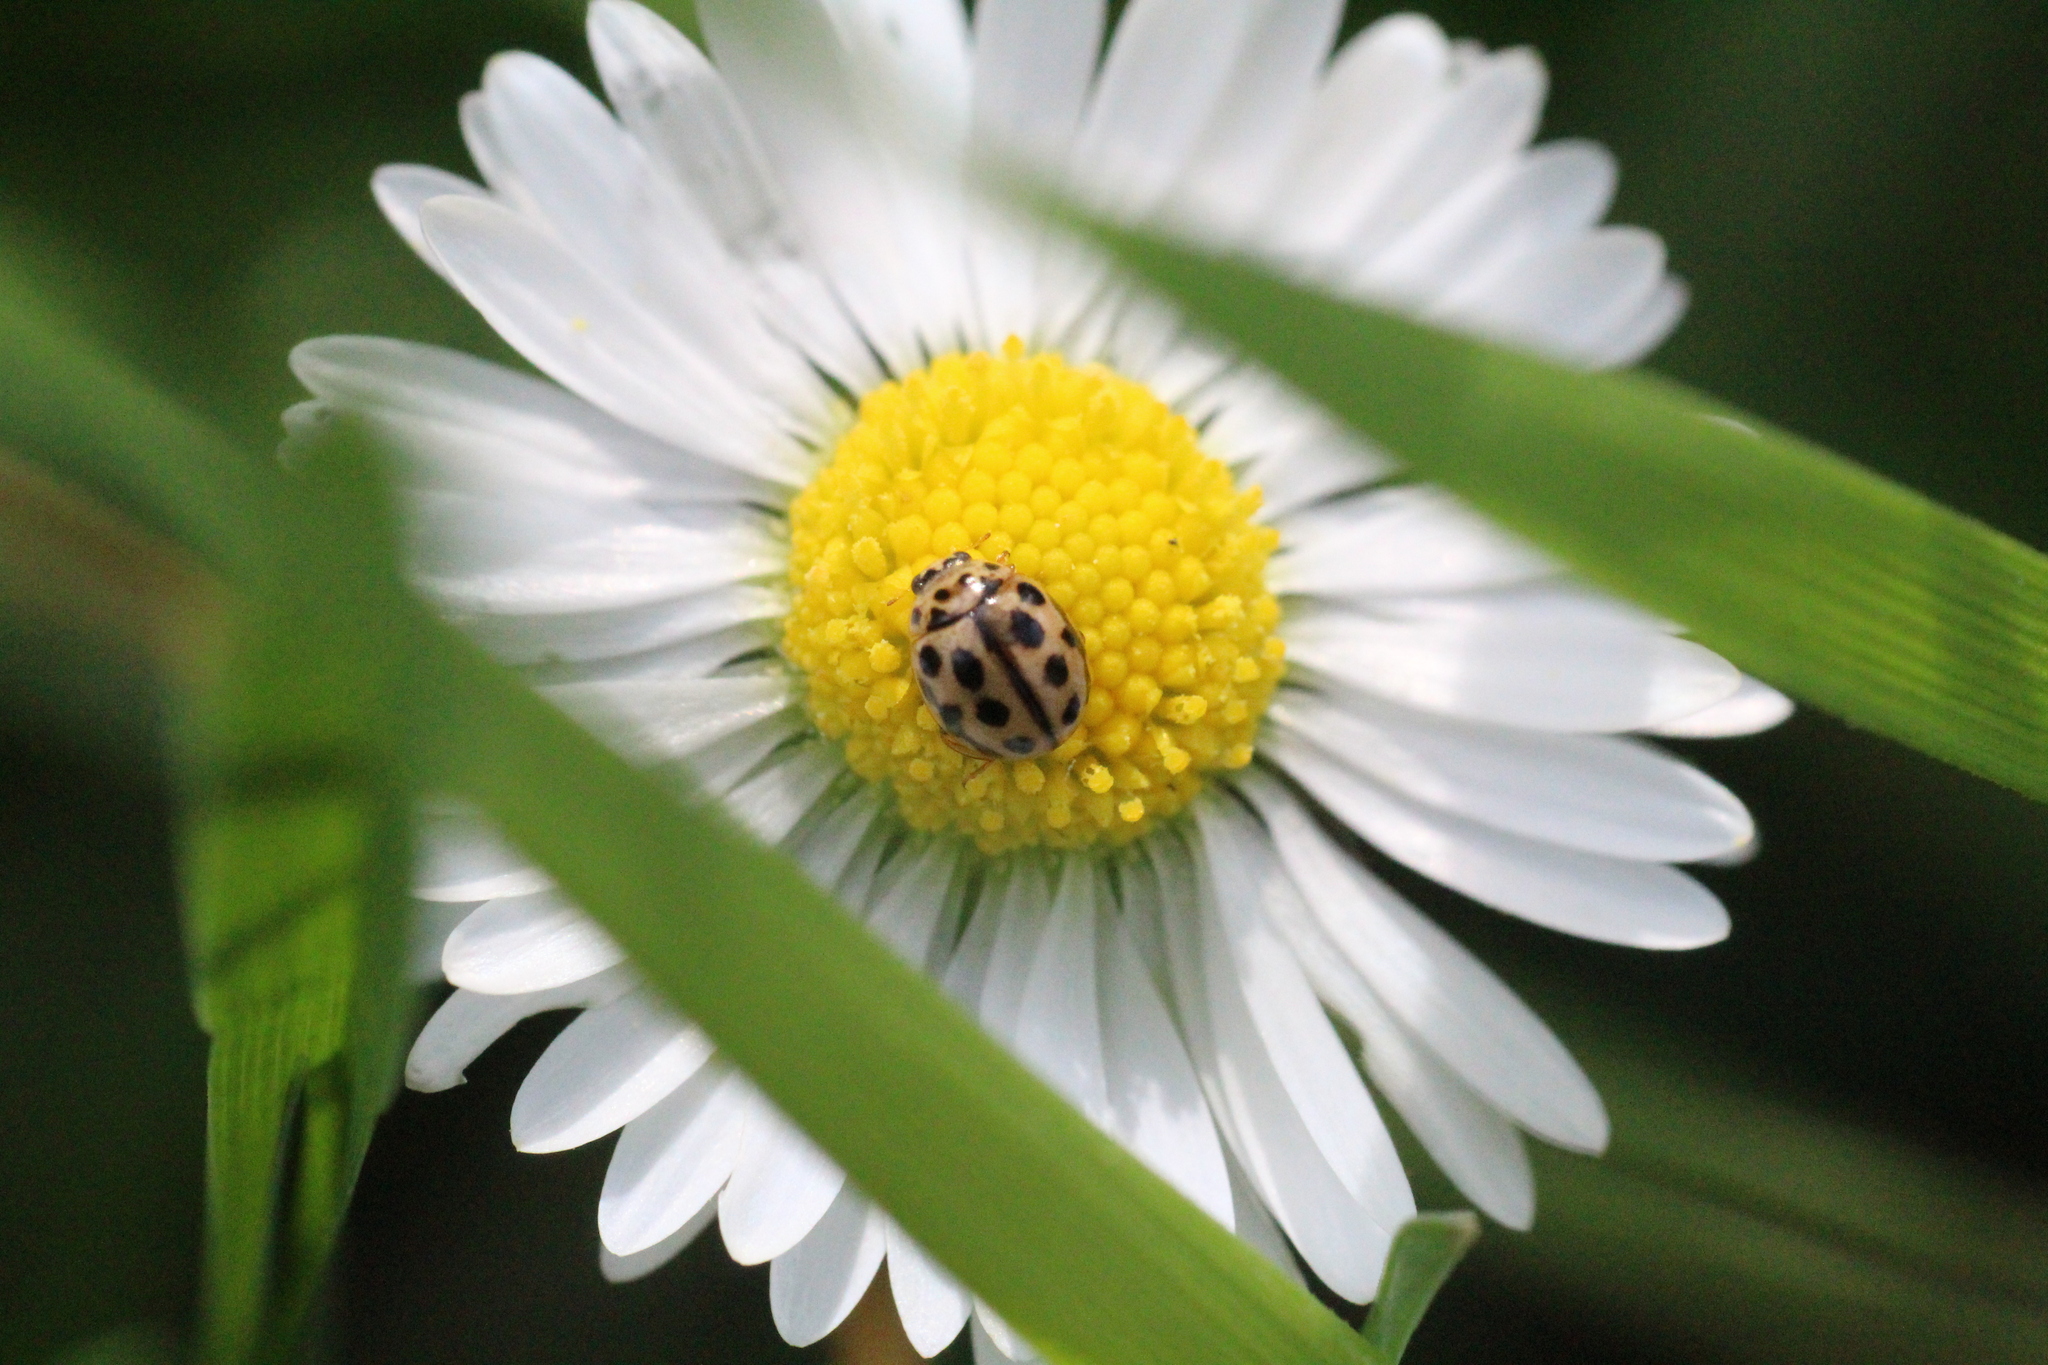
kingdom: Animalia
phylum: Arthropoda
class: Insecta
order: Coleoptera
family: Coccinellidae
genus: Tytthaspis
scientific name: Tytthaspis sedecimpunctata
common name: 16-spot ladybird
